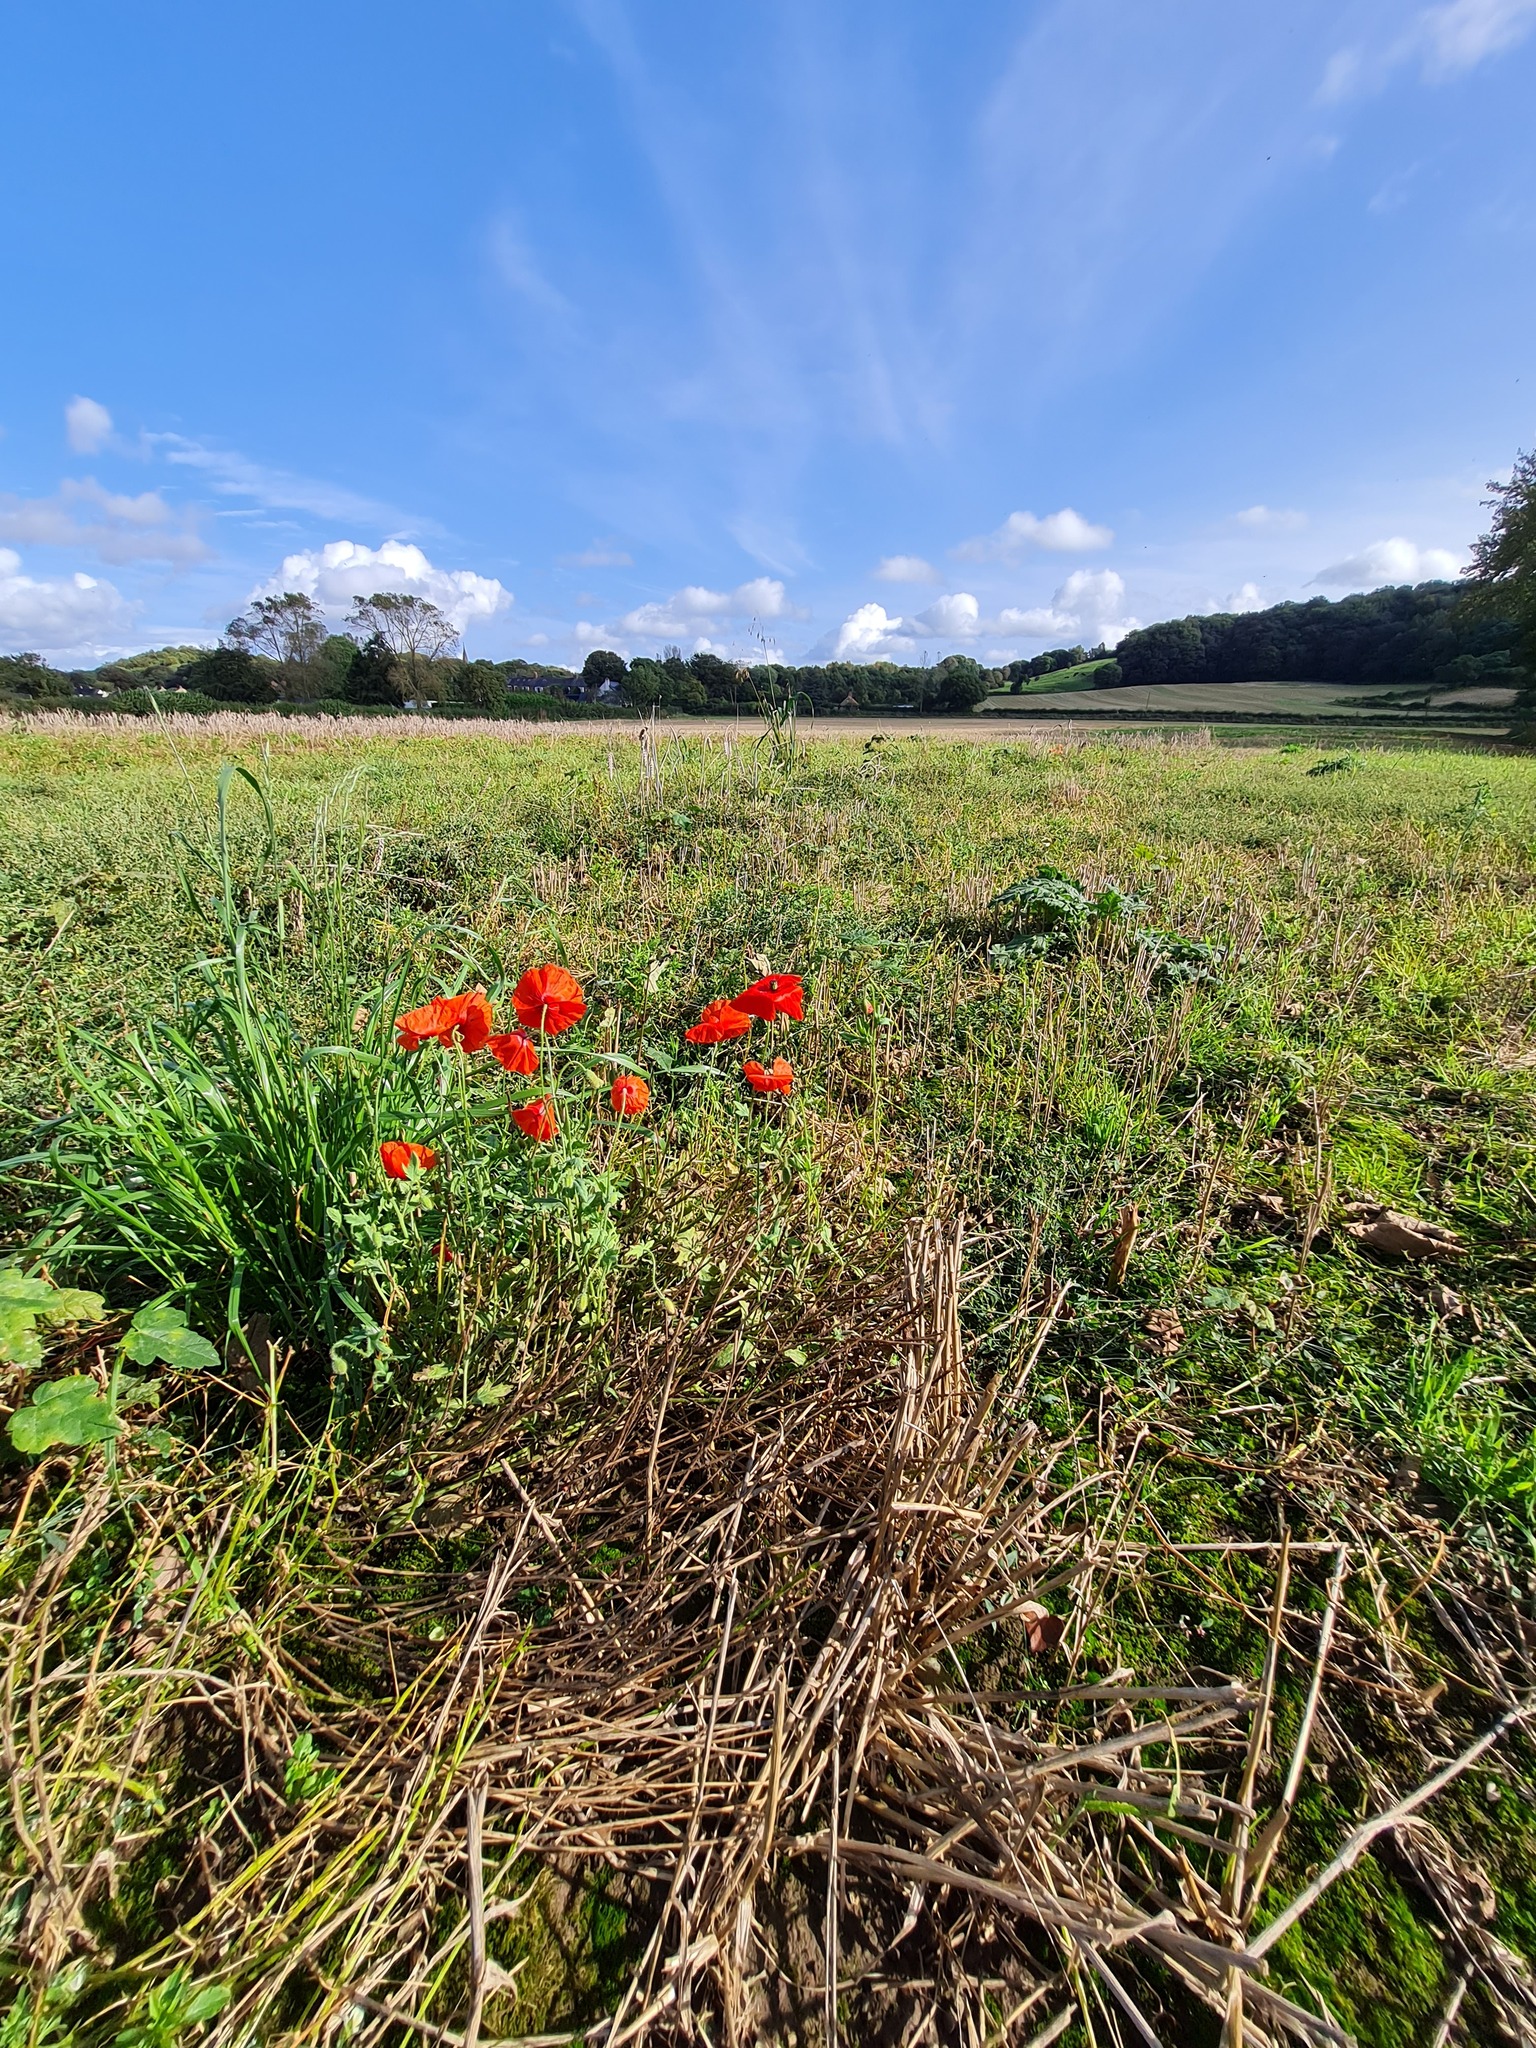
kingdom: Plantae
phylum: Tracheophyta
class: Magnoliopsida
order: Ranunculales
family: Papaveraceae
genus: Papaver
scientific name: Papaver rhoeas
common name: Corn poppy
